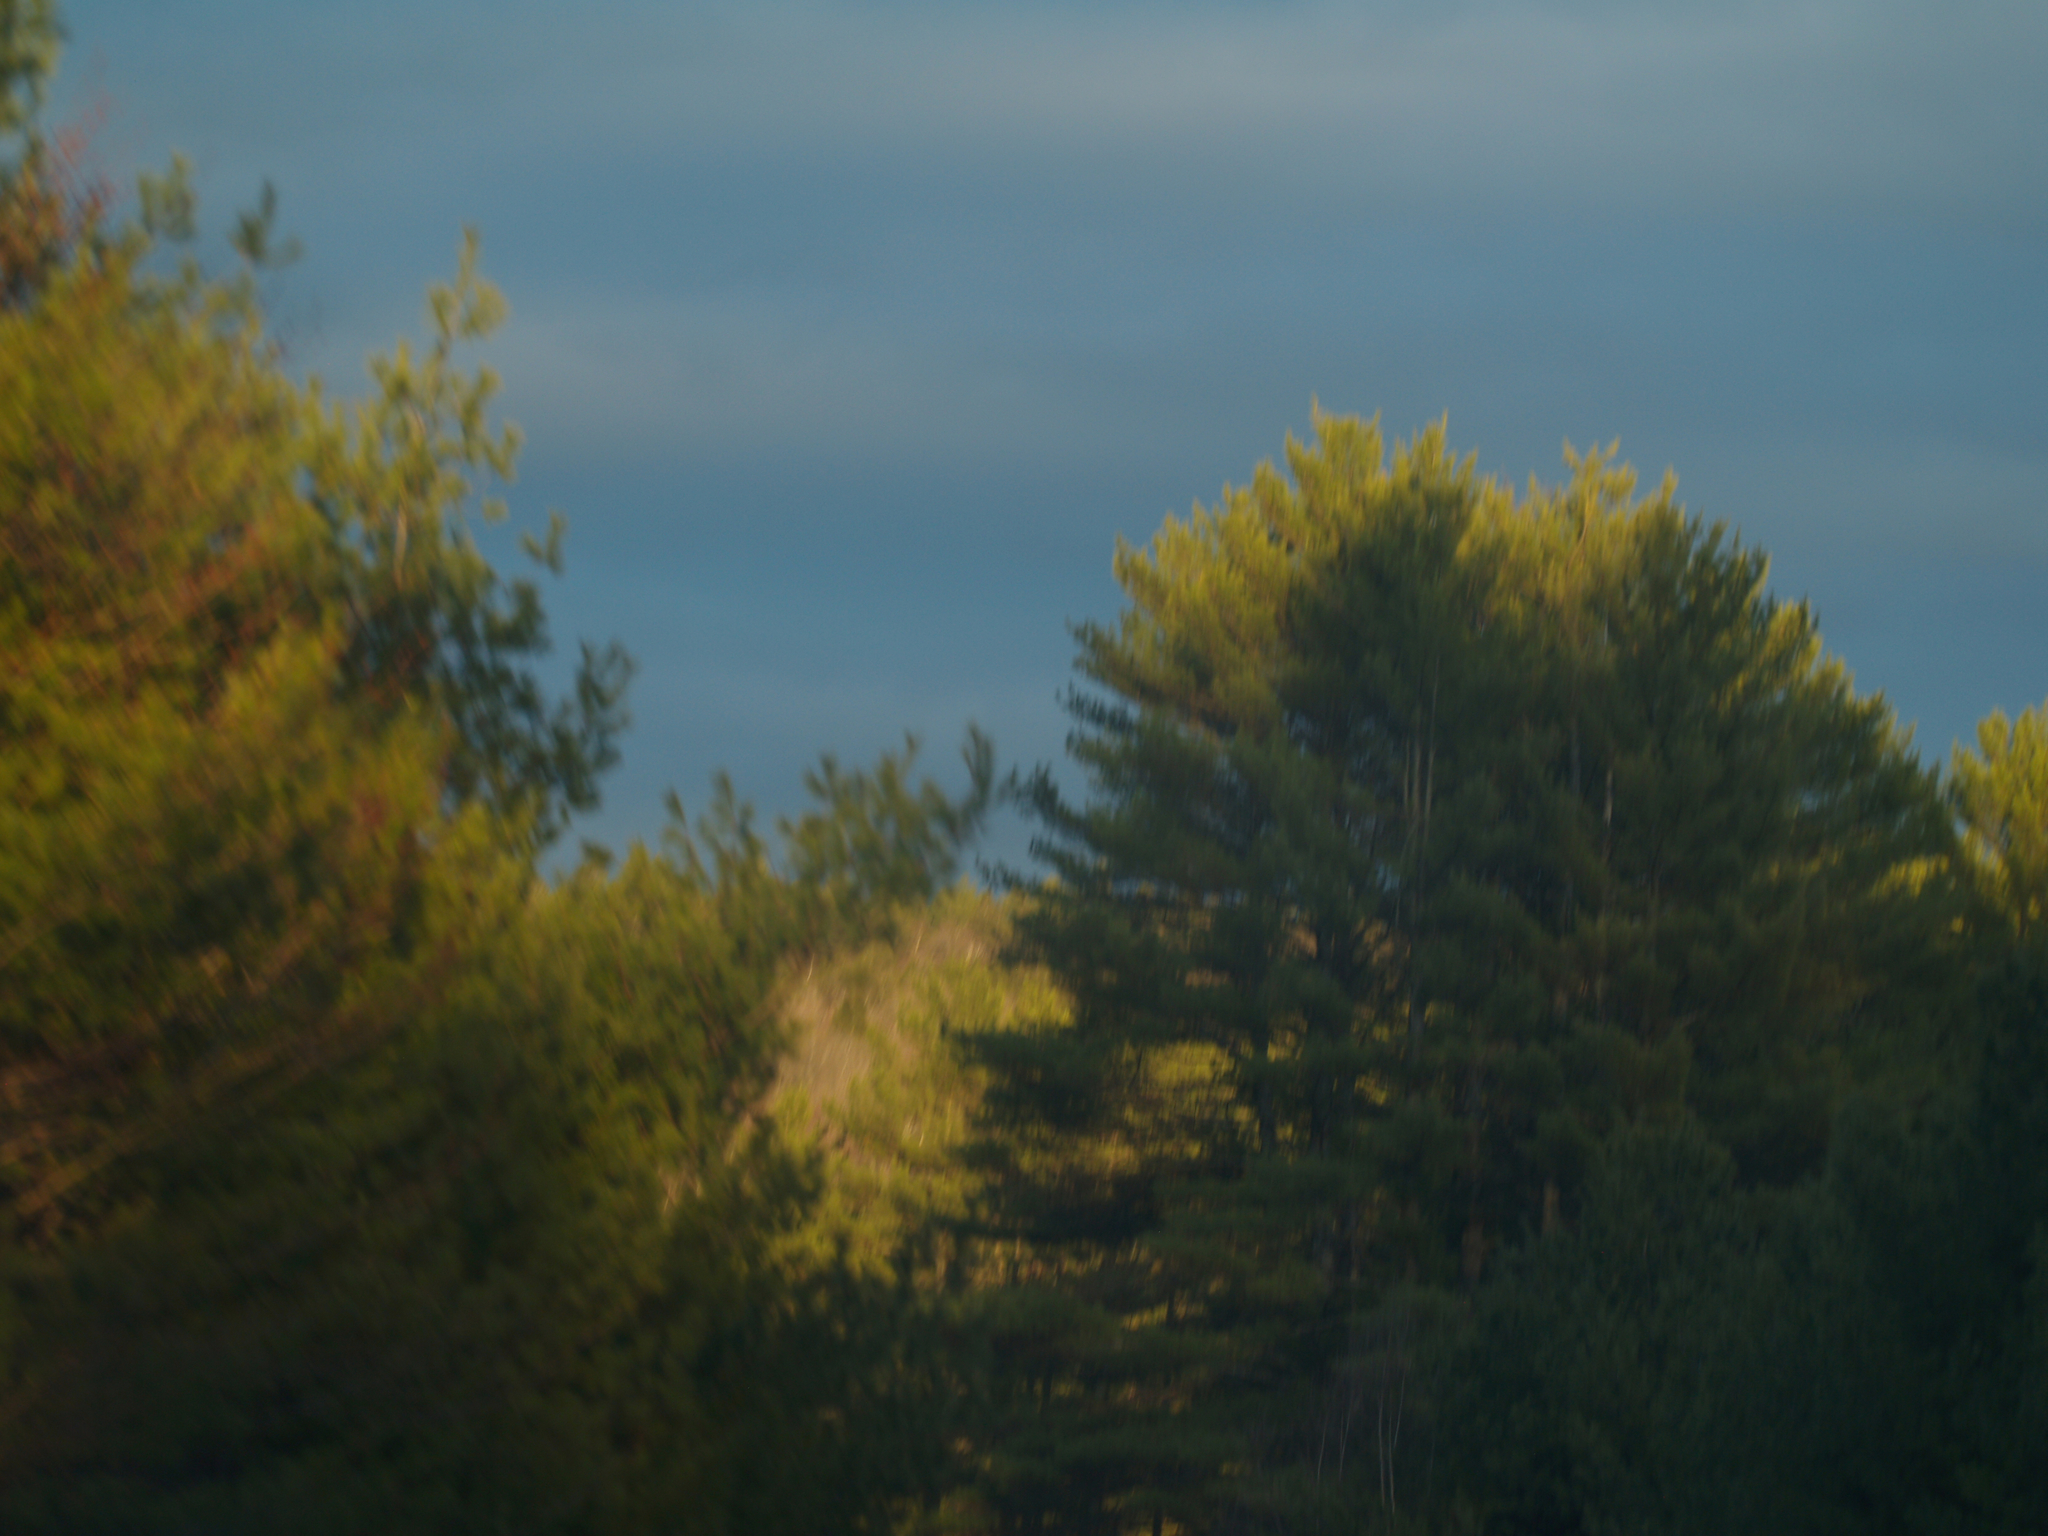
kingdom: Plantae
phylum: Tracheophyta
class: Pinopsida
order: Pinales
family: Pinaceae
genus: Pinus
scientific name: Pinus strobus
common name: Weymouth pine
